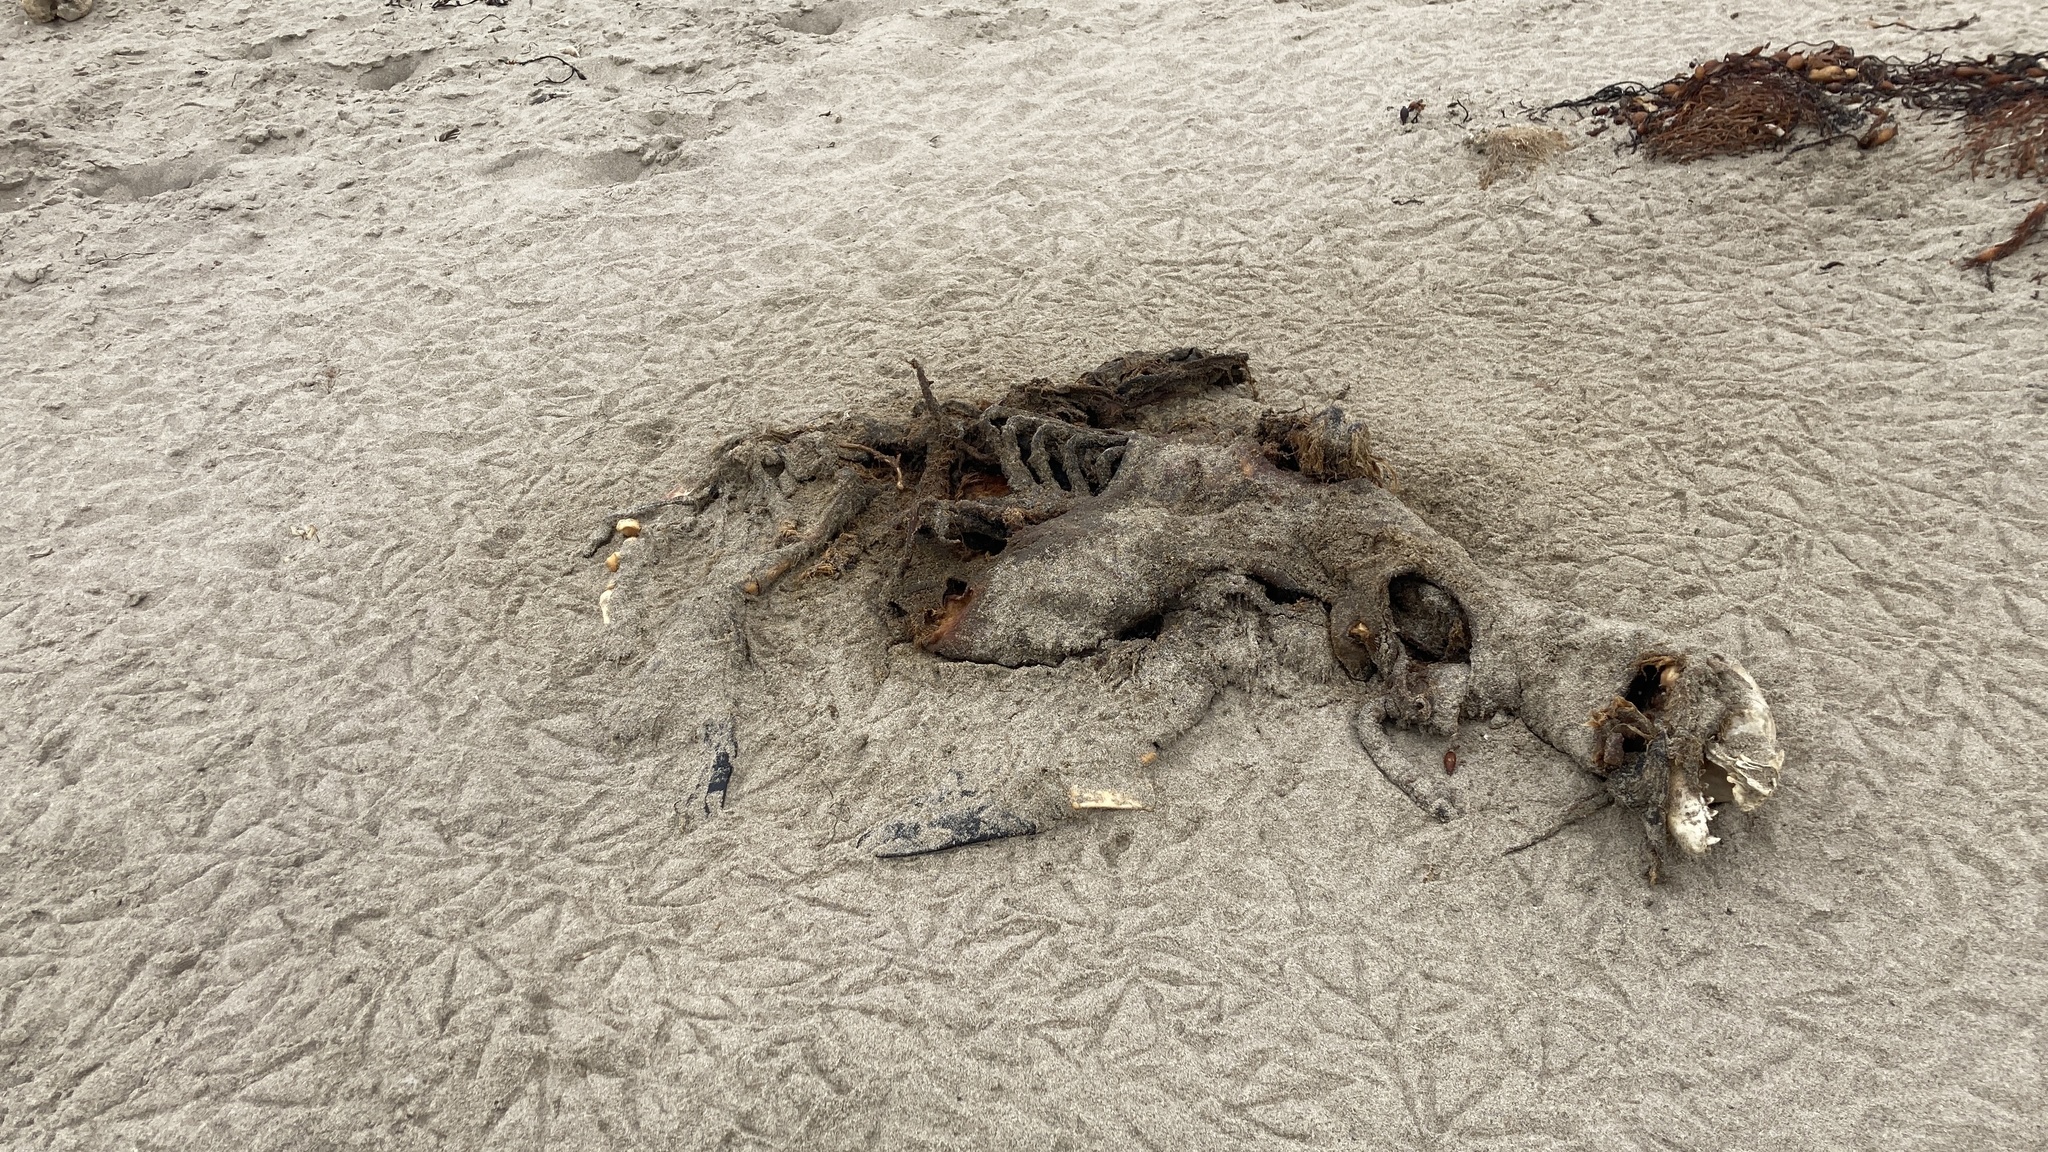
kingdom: Animalia
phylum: Chordata
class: Mammalia
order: Carnivora
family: Otariidae
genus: Zalophus
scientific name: Zalophus californianus
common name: California sea lion
